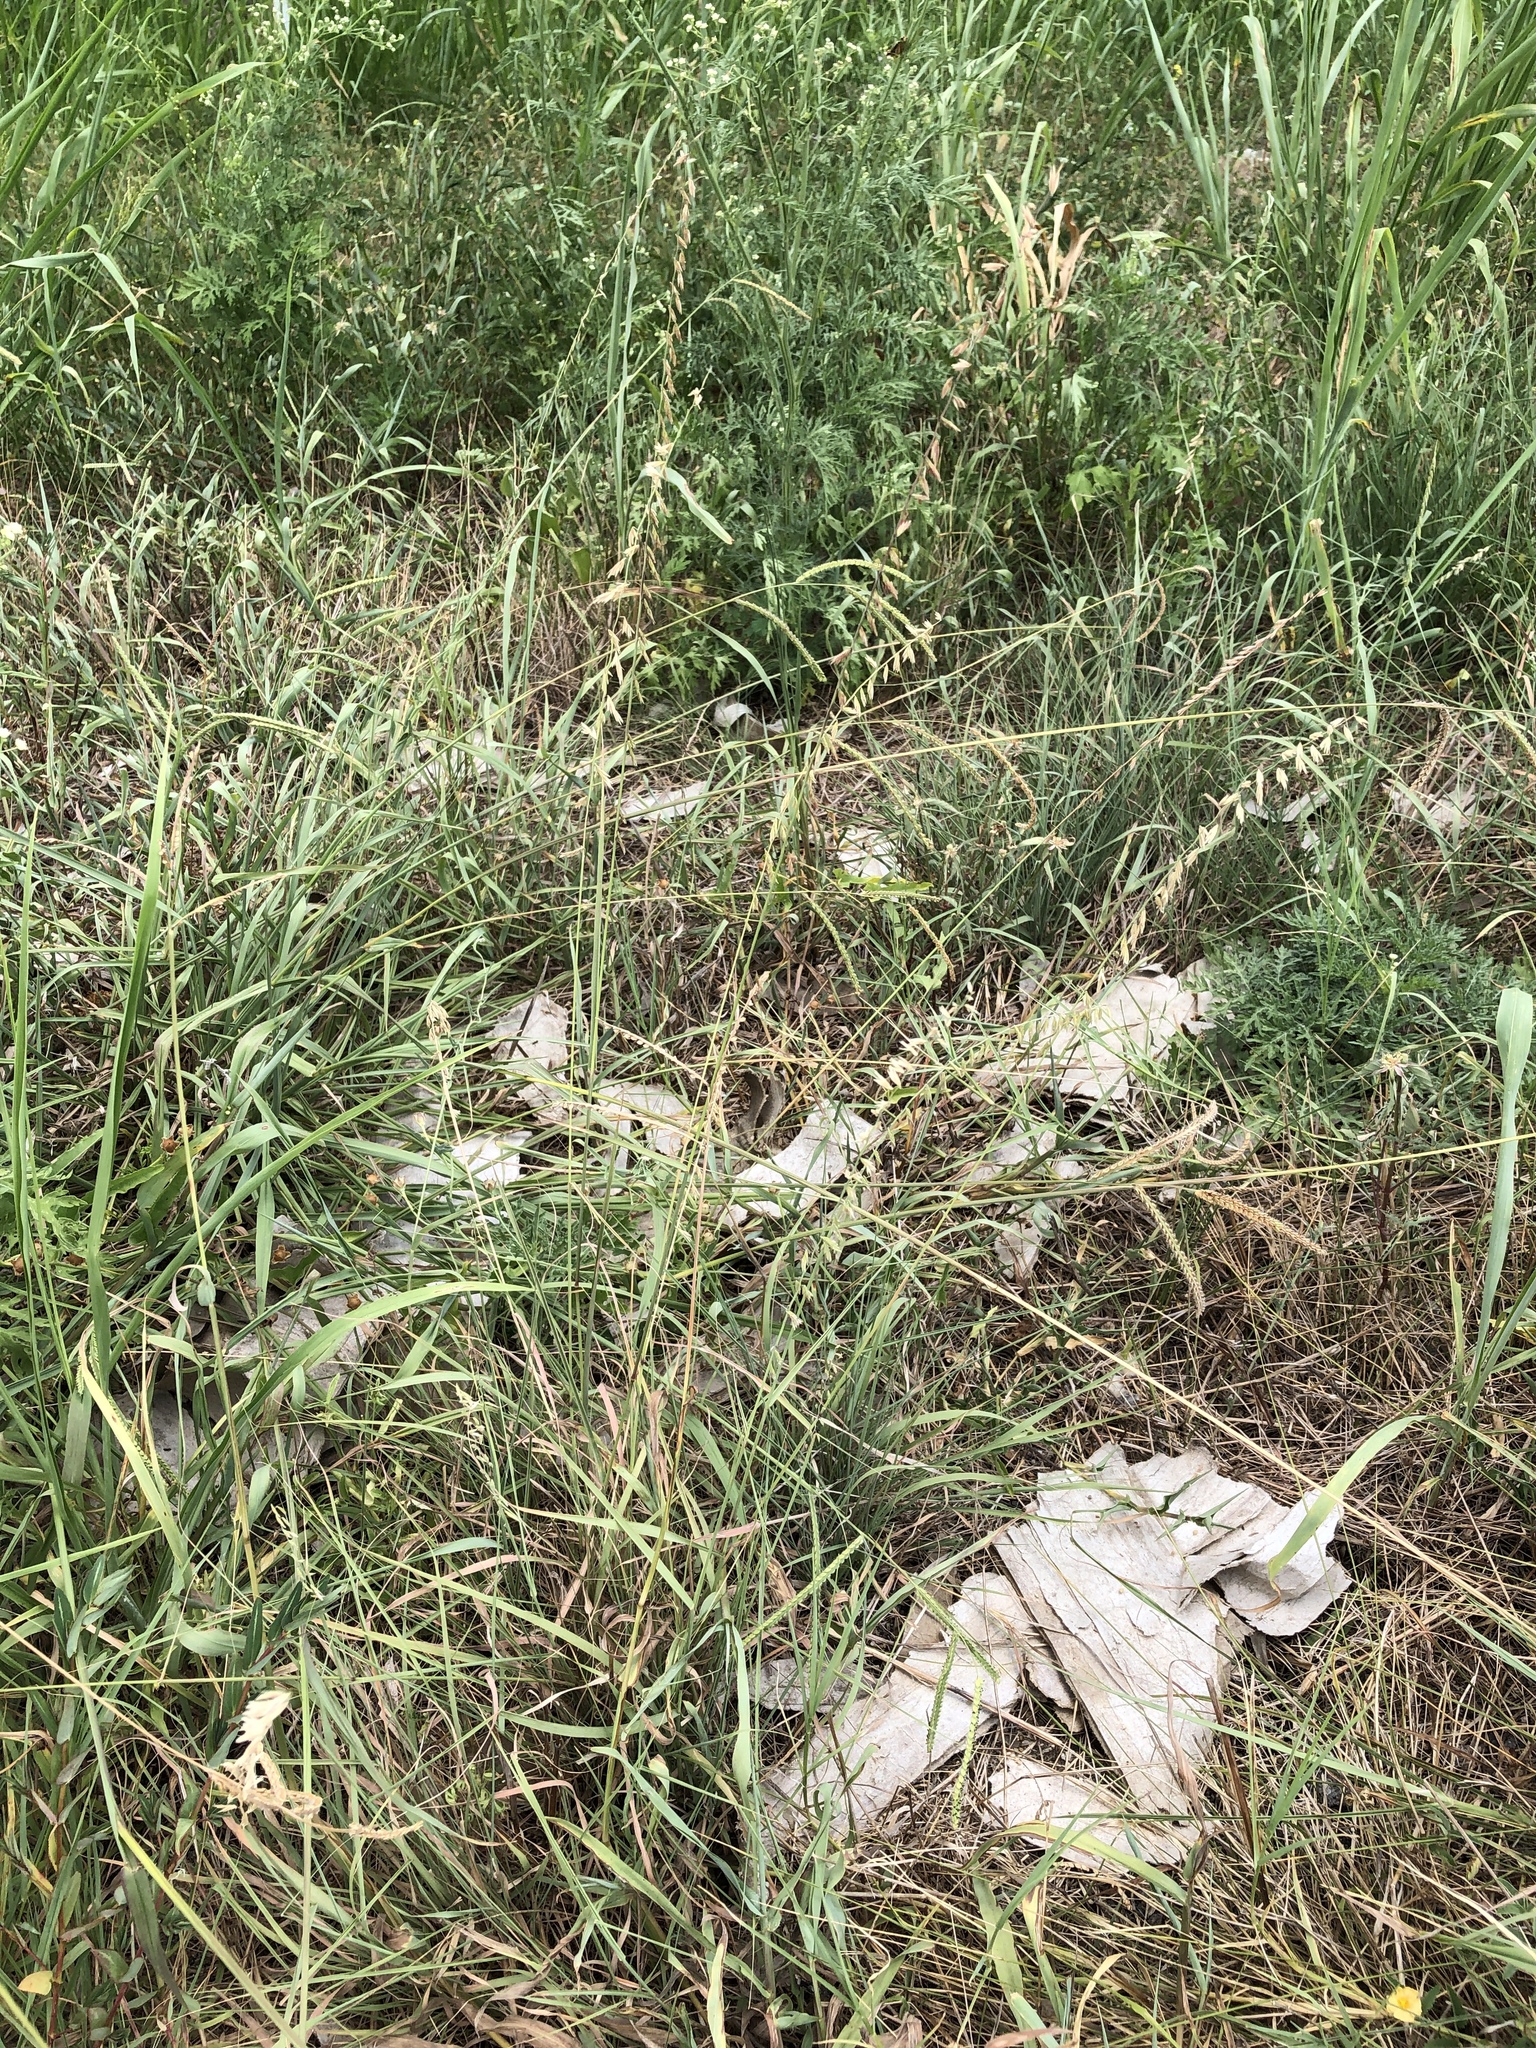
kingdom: Plantae
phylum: Tracheophyta
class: Liliopsida
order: Poales
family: Poaceae
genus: Bouteloua
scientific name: Bouteloua curtipendula
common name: Side-oats grama
